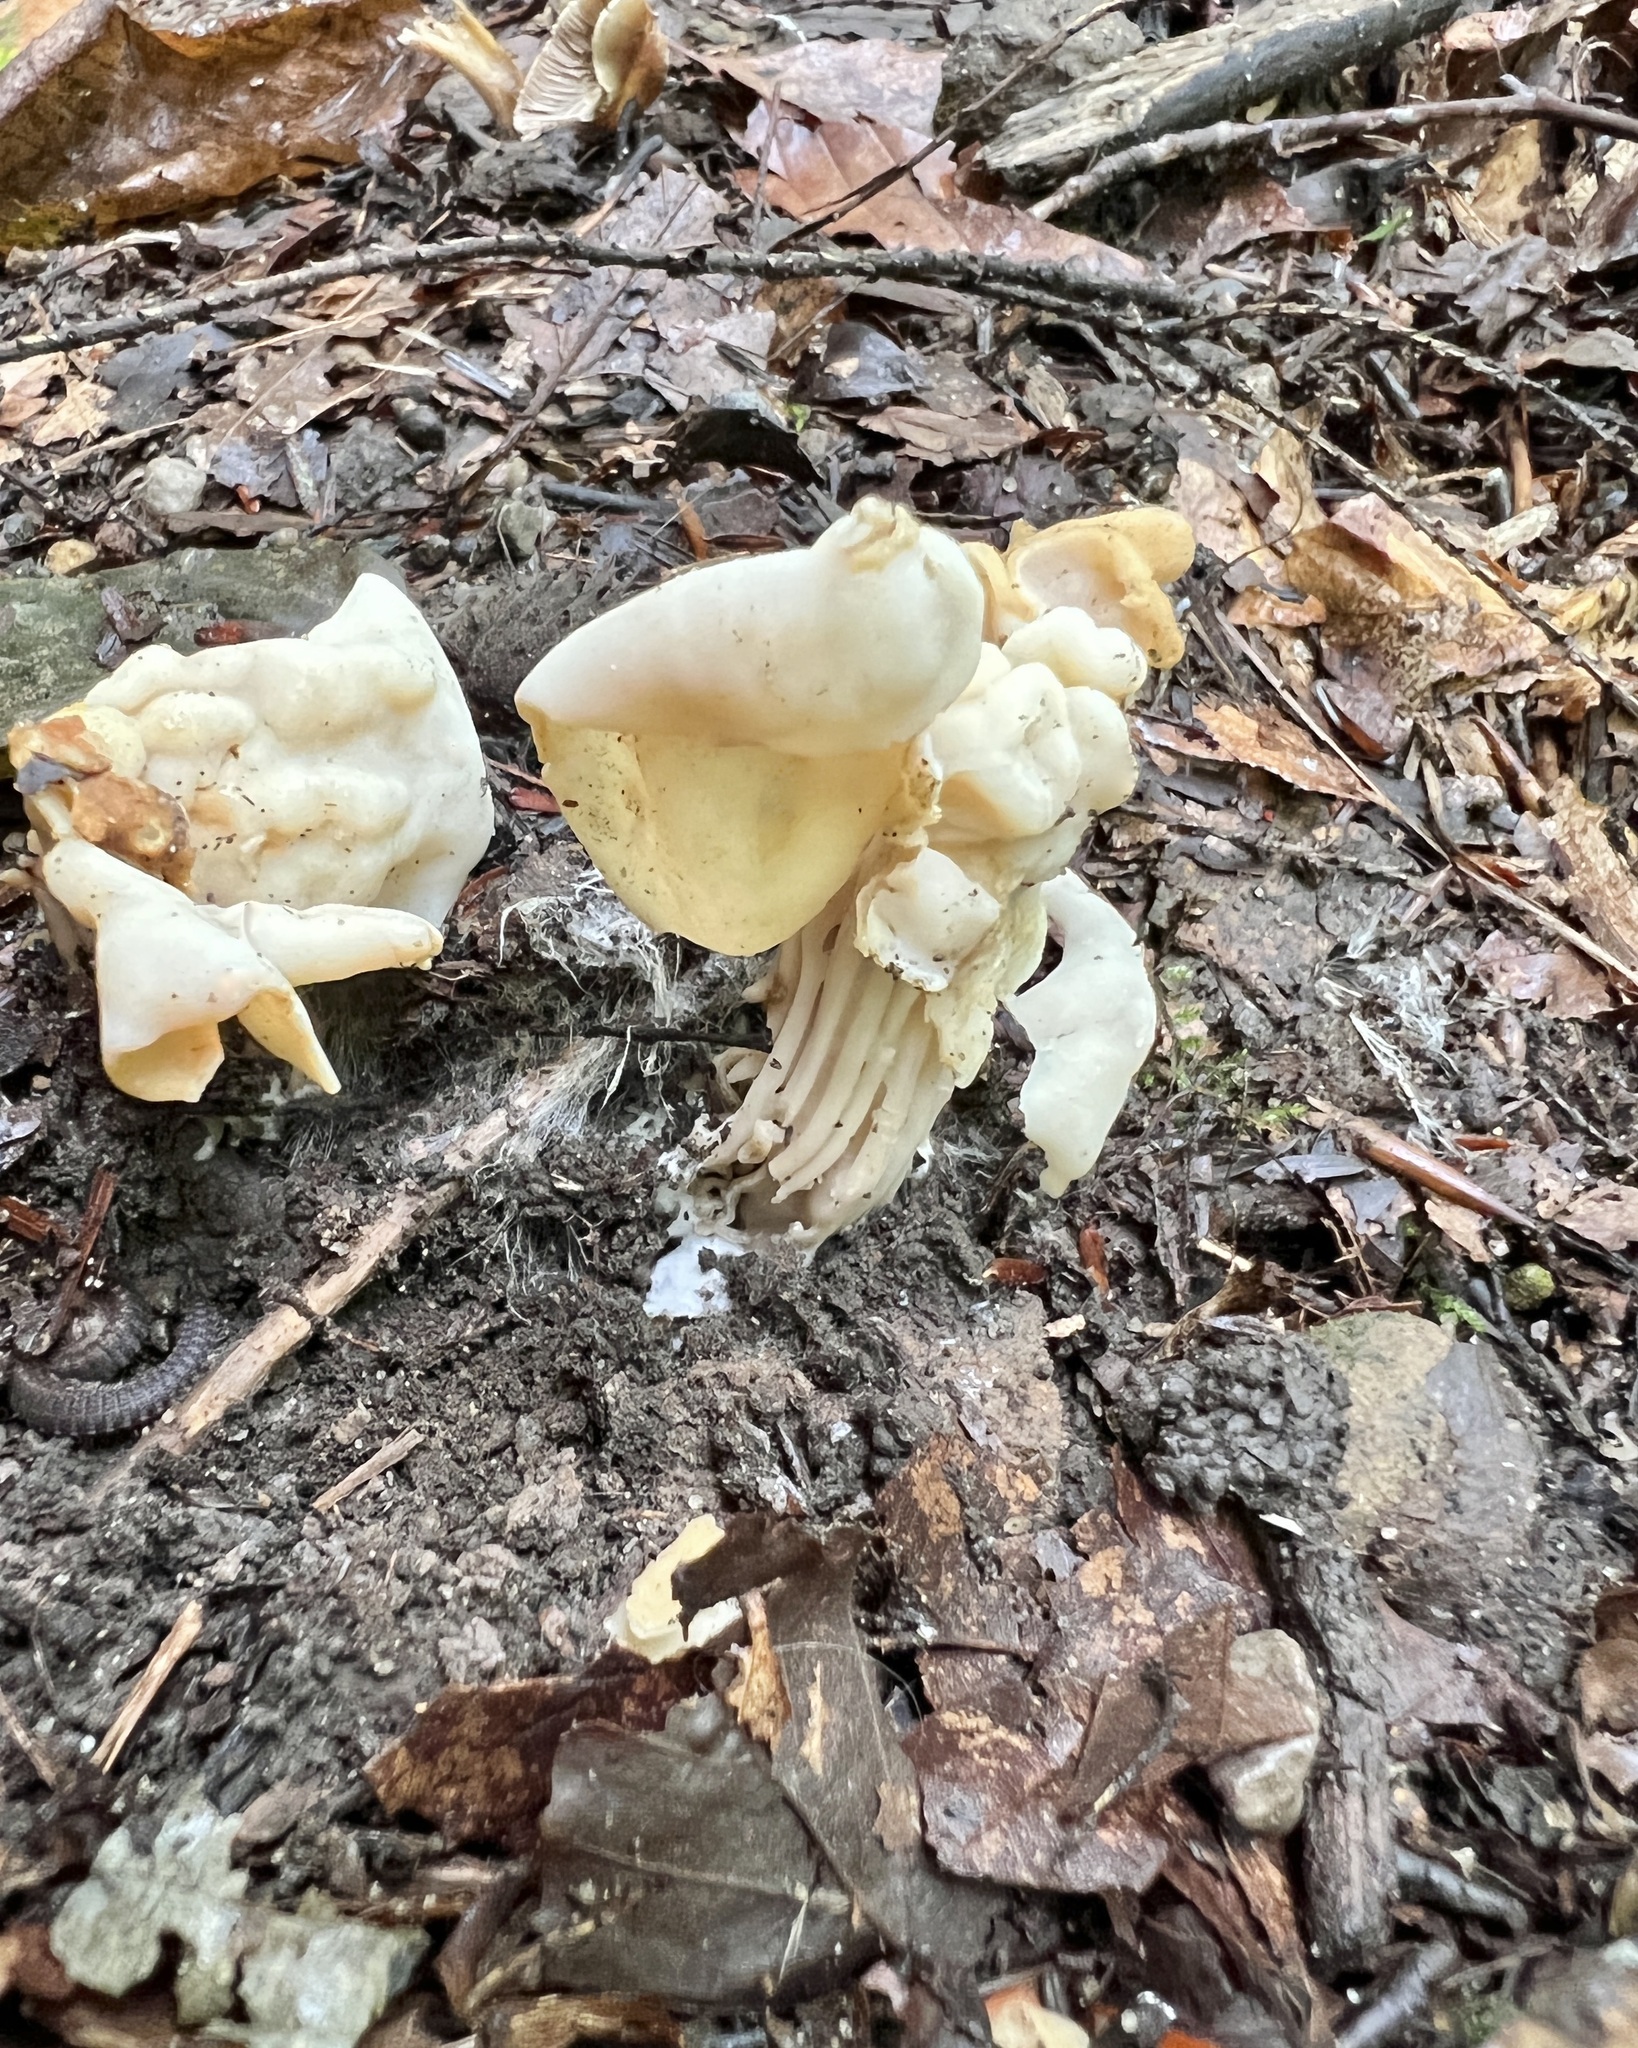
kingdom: Fungi
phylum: Ascomycota
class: Pezizomycetes
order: Pezizales
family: Helvellaceae
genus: Helvella
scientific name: Helvella crispa
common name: White saddle
